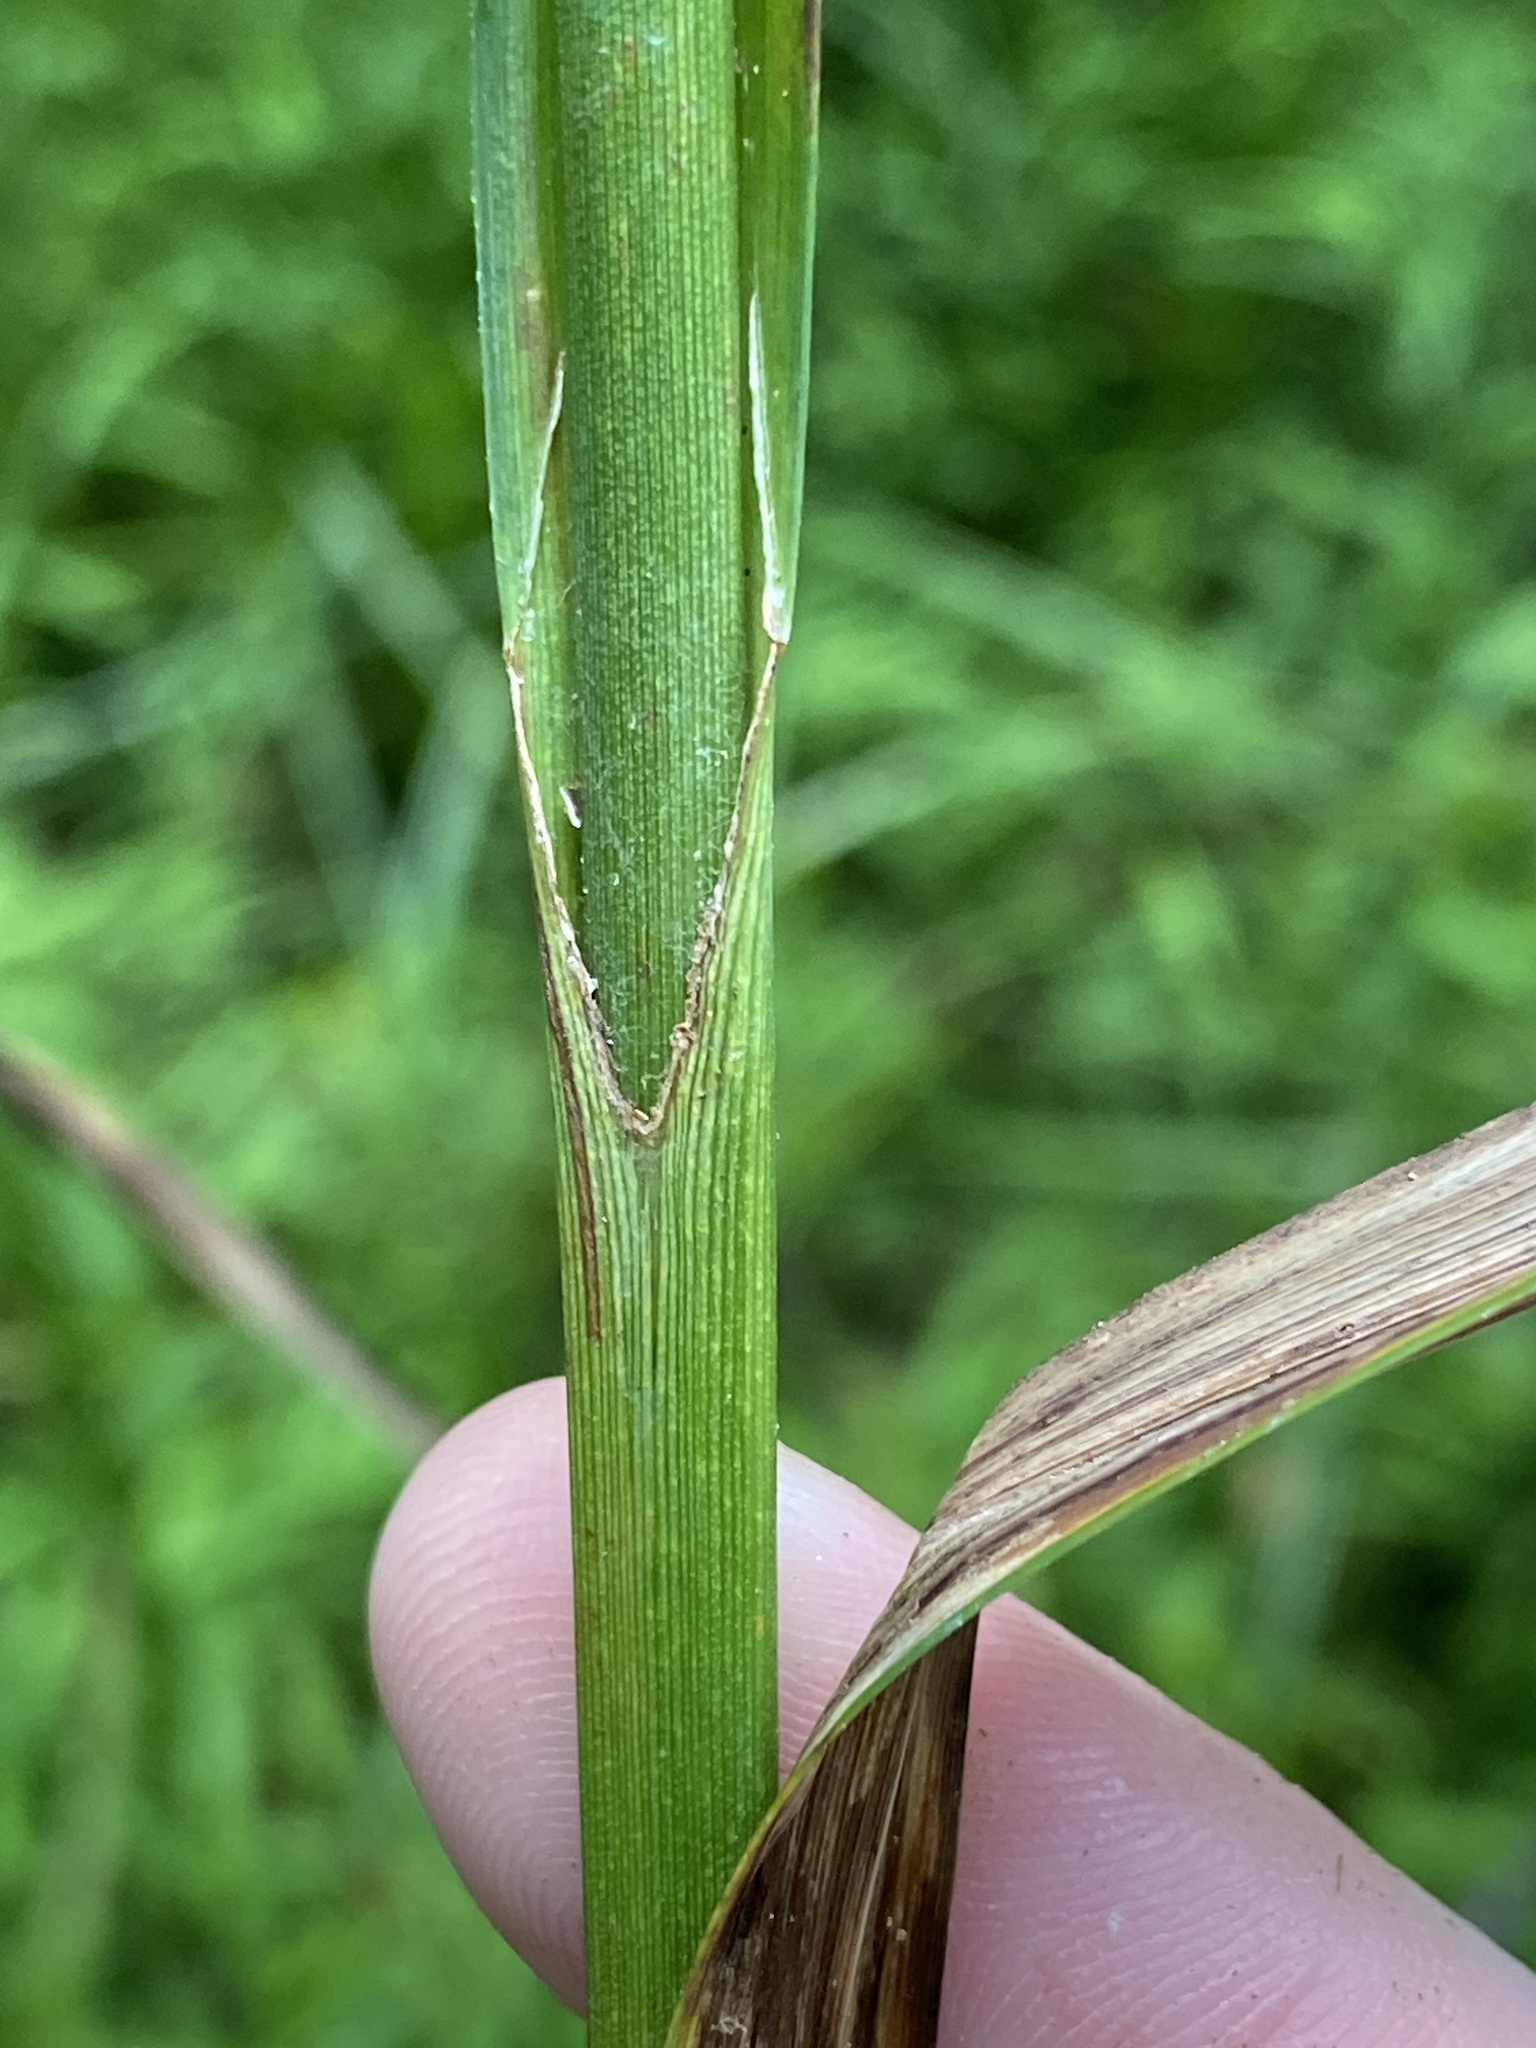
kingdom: Plantae
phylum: Tracheophyta
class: Liliopsida
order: Poales
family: Cyperaceae
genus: Scirpus
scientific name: Scirpus atrovirens
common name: Black bulrush
